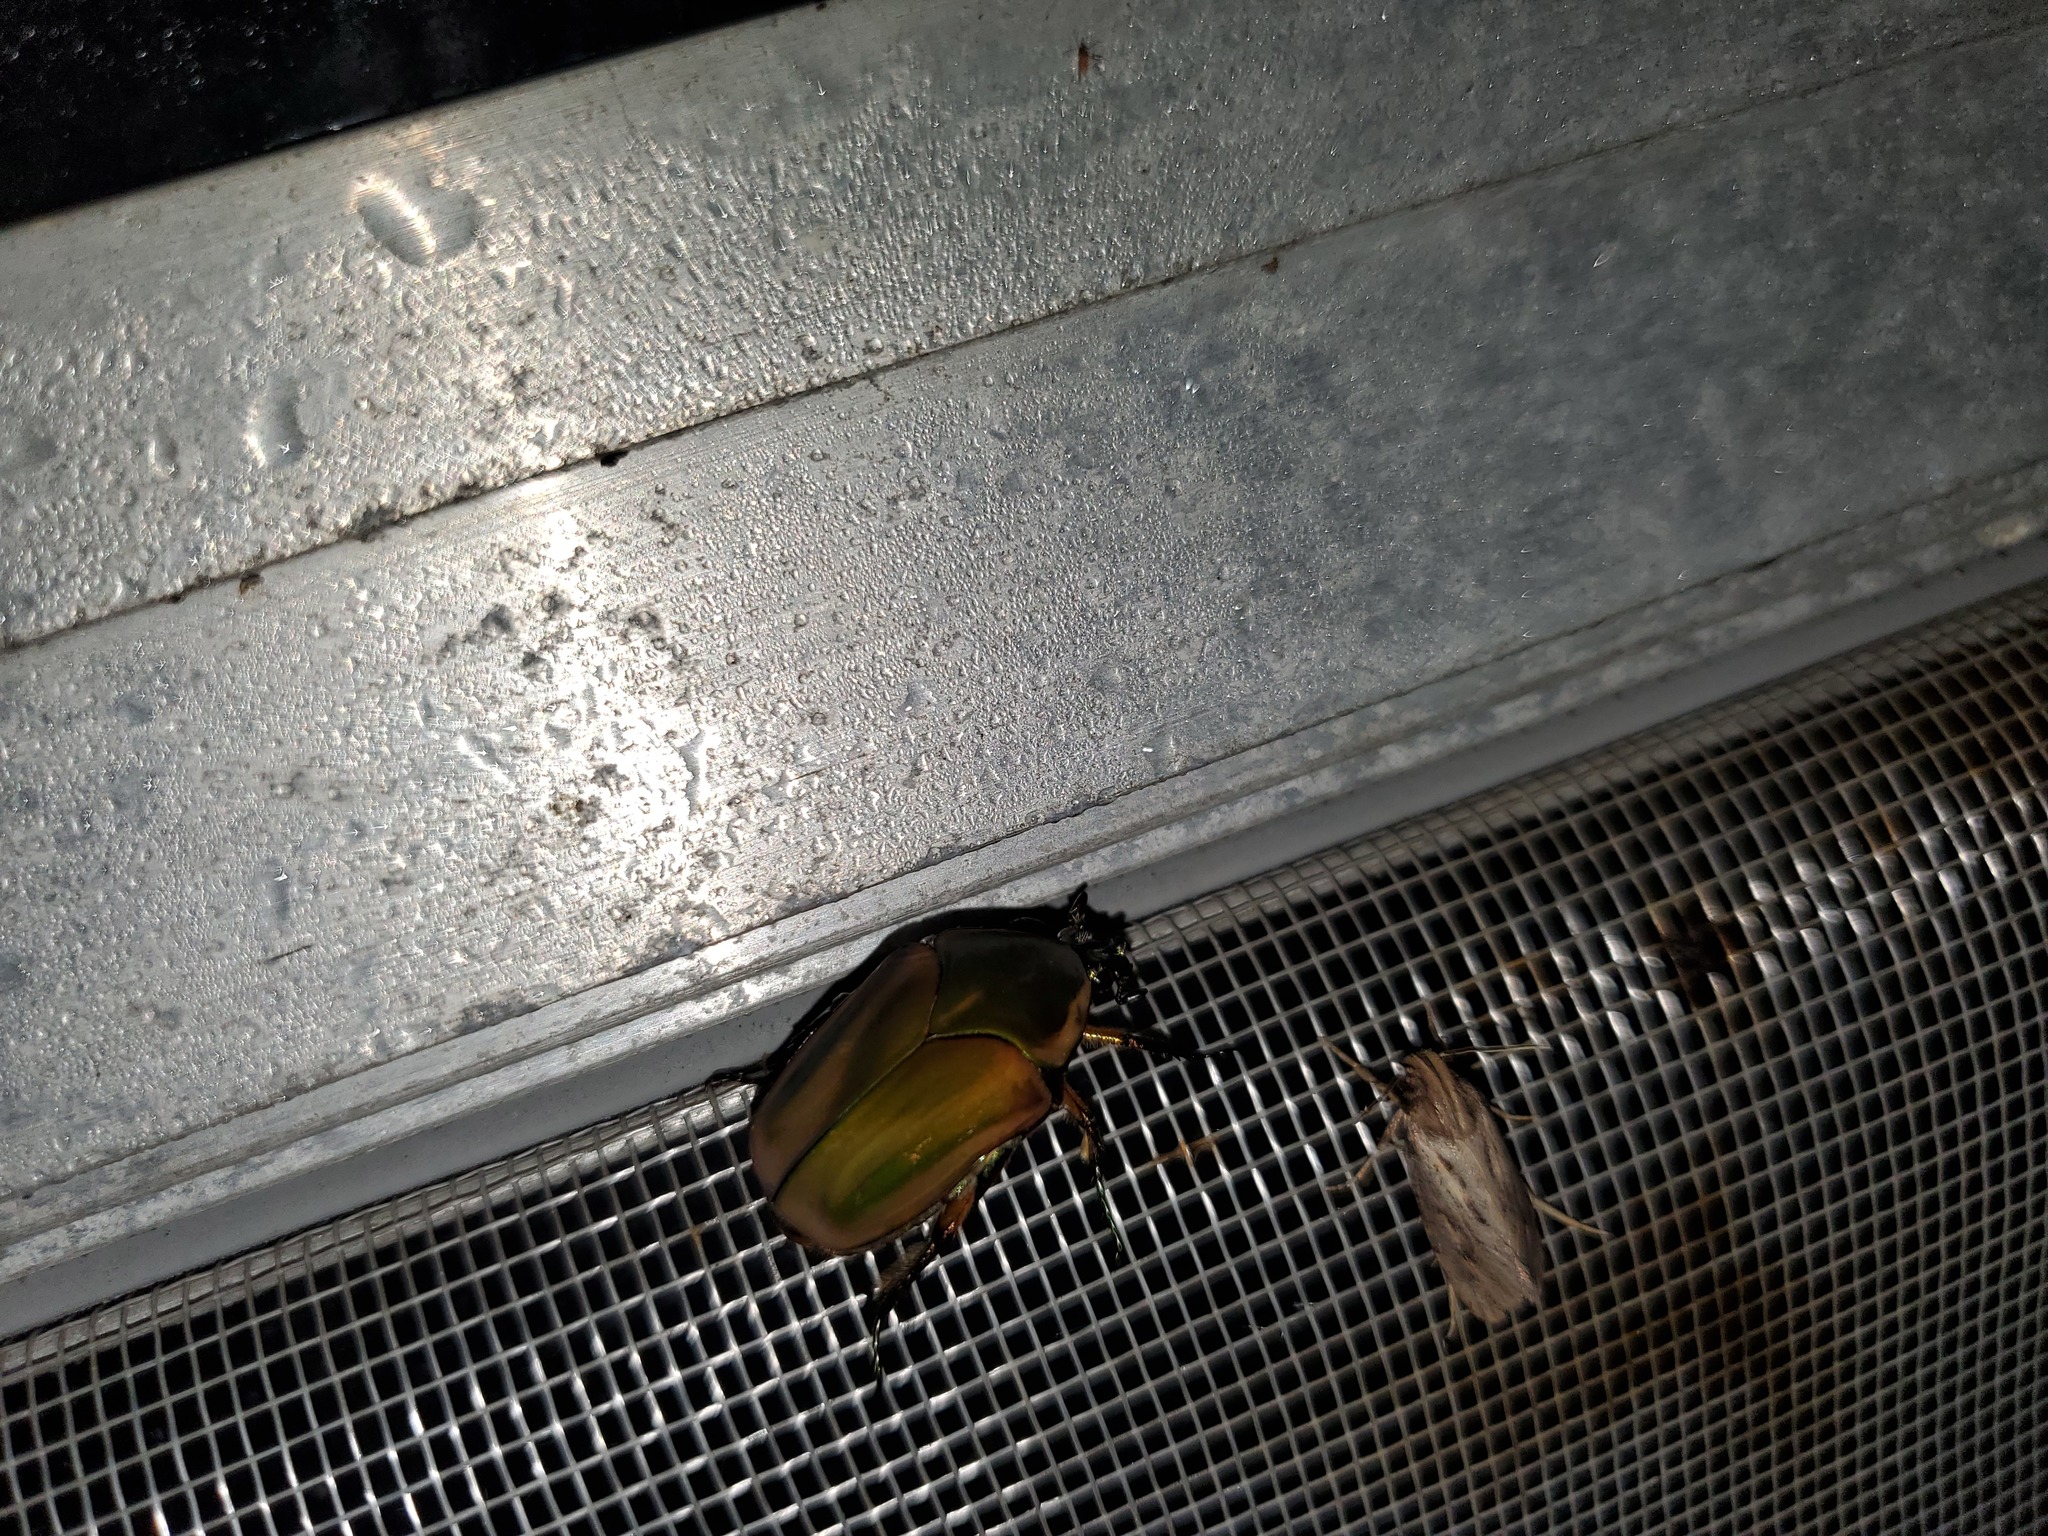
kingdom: Animalia
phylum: Arthropoda
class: Insecta
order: Coleoptera
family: Scarabaeidae
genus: Cotinis
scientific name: Cotinis nitida
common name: Common green june beetle
